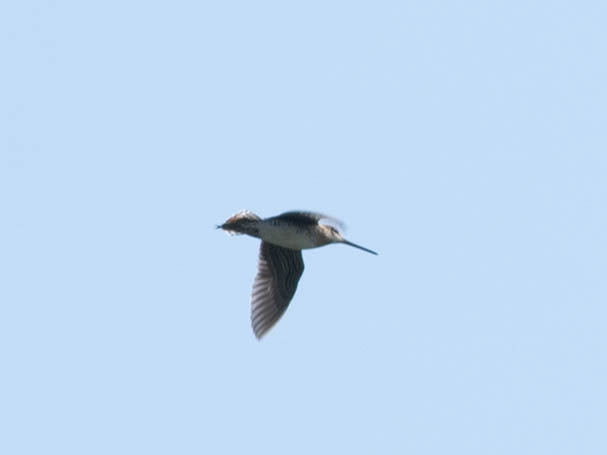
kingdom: Animalia
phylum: Chordata
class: Aves
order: Charadriiformes
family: Scolopacidae
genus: Gallinago
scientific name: Gallinago delicata
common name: Wilson's snipe
